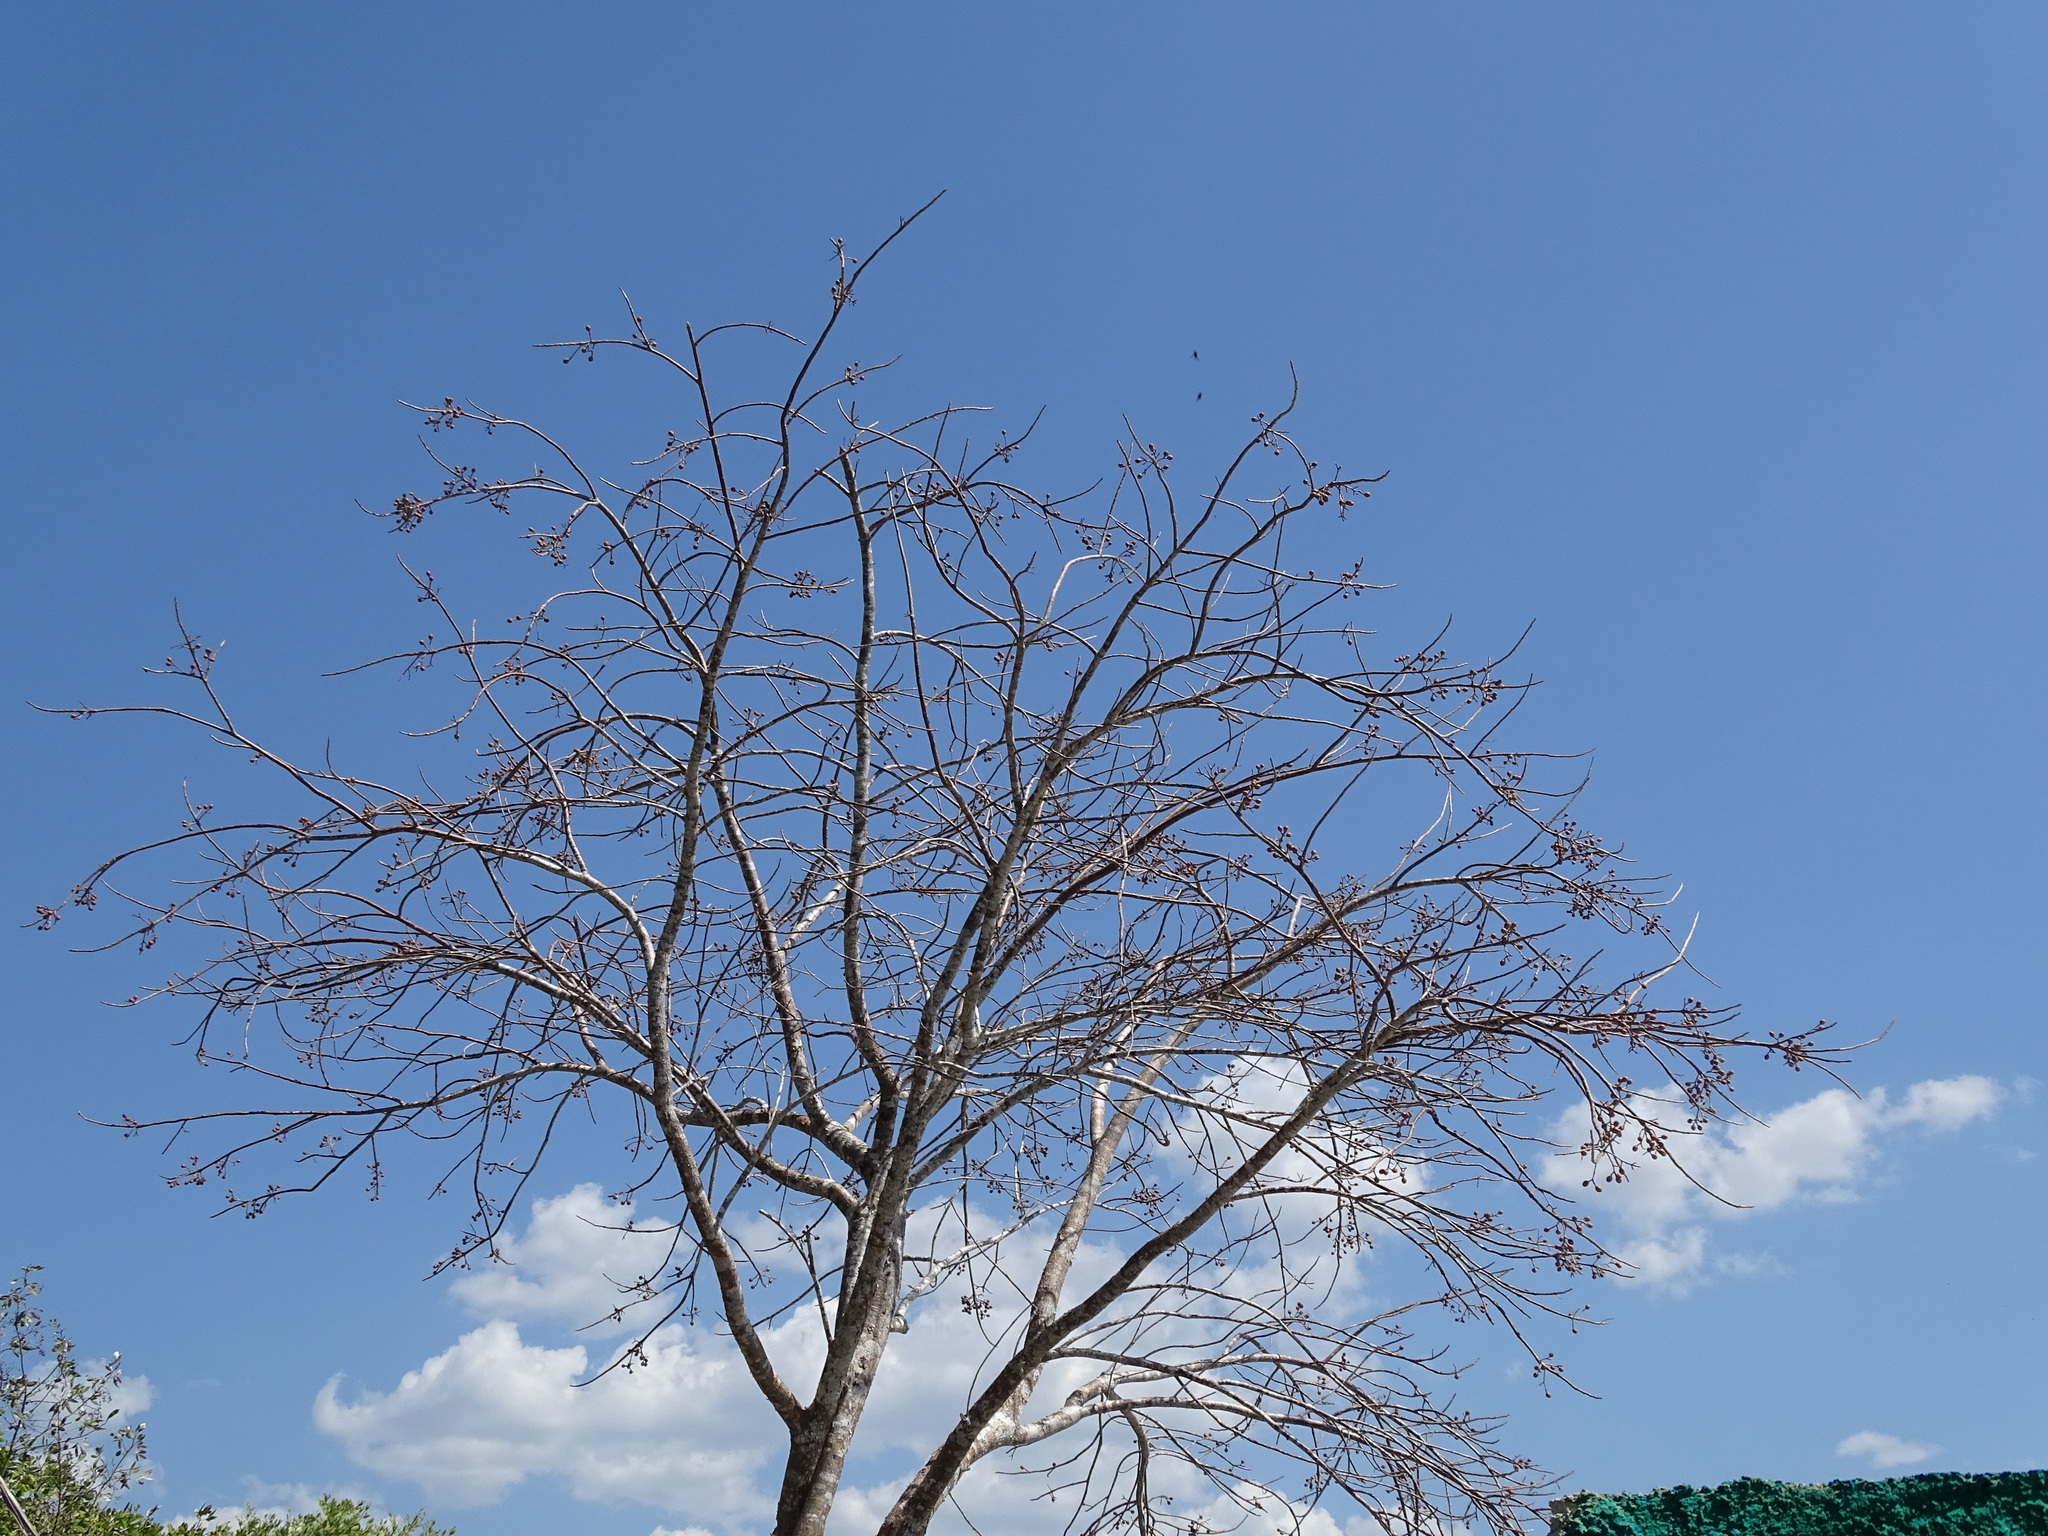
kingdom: Plantae
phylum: Tracheophyta
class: Magnoliopsida
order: Sapindales
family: Burseraceae
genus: Bursera
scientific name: Bursera simaruba
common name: Turpentine tree
